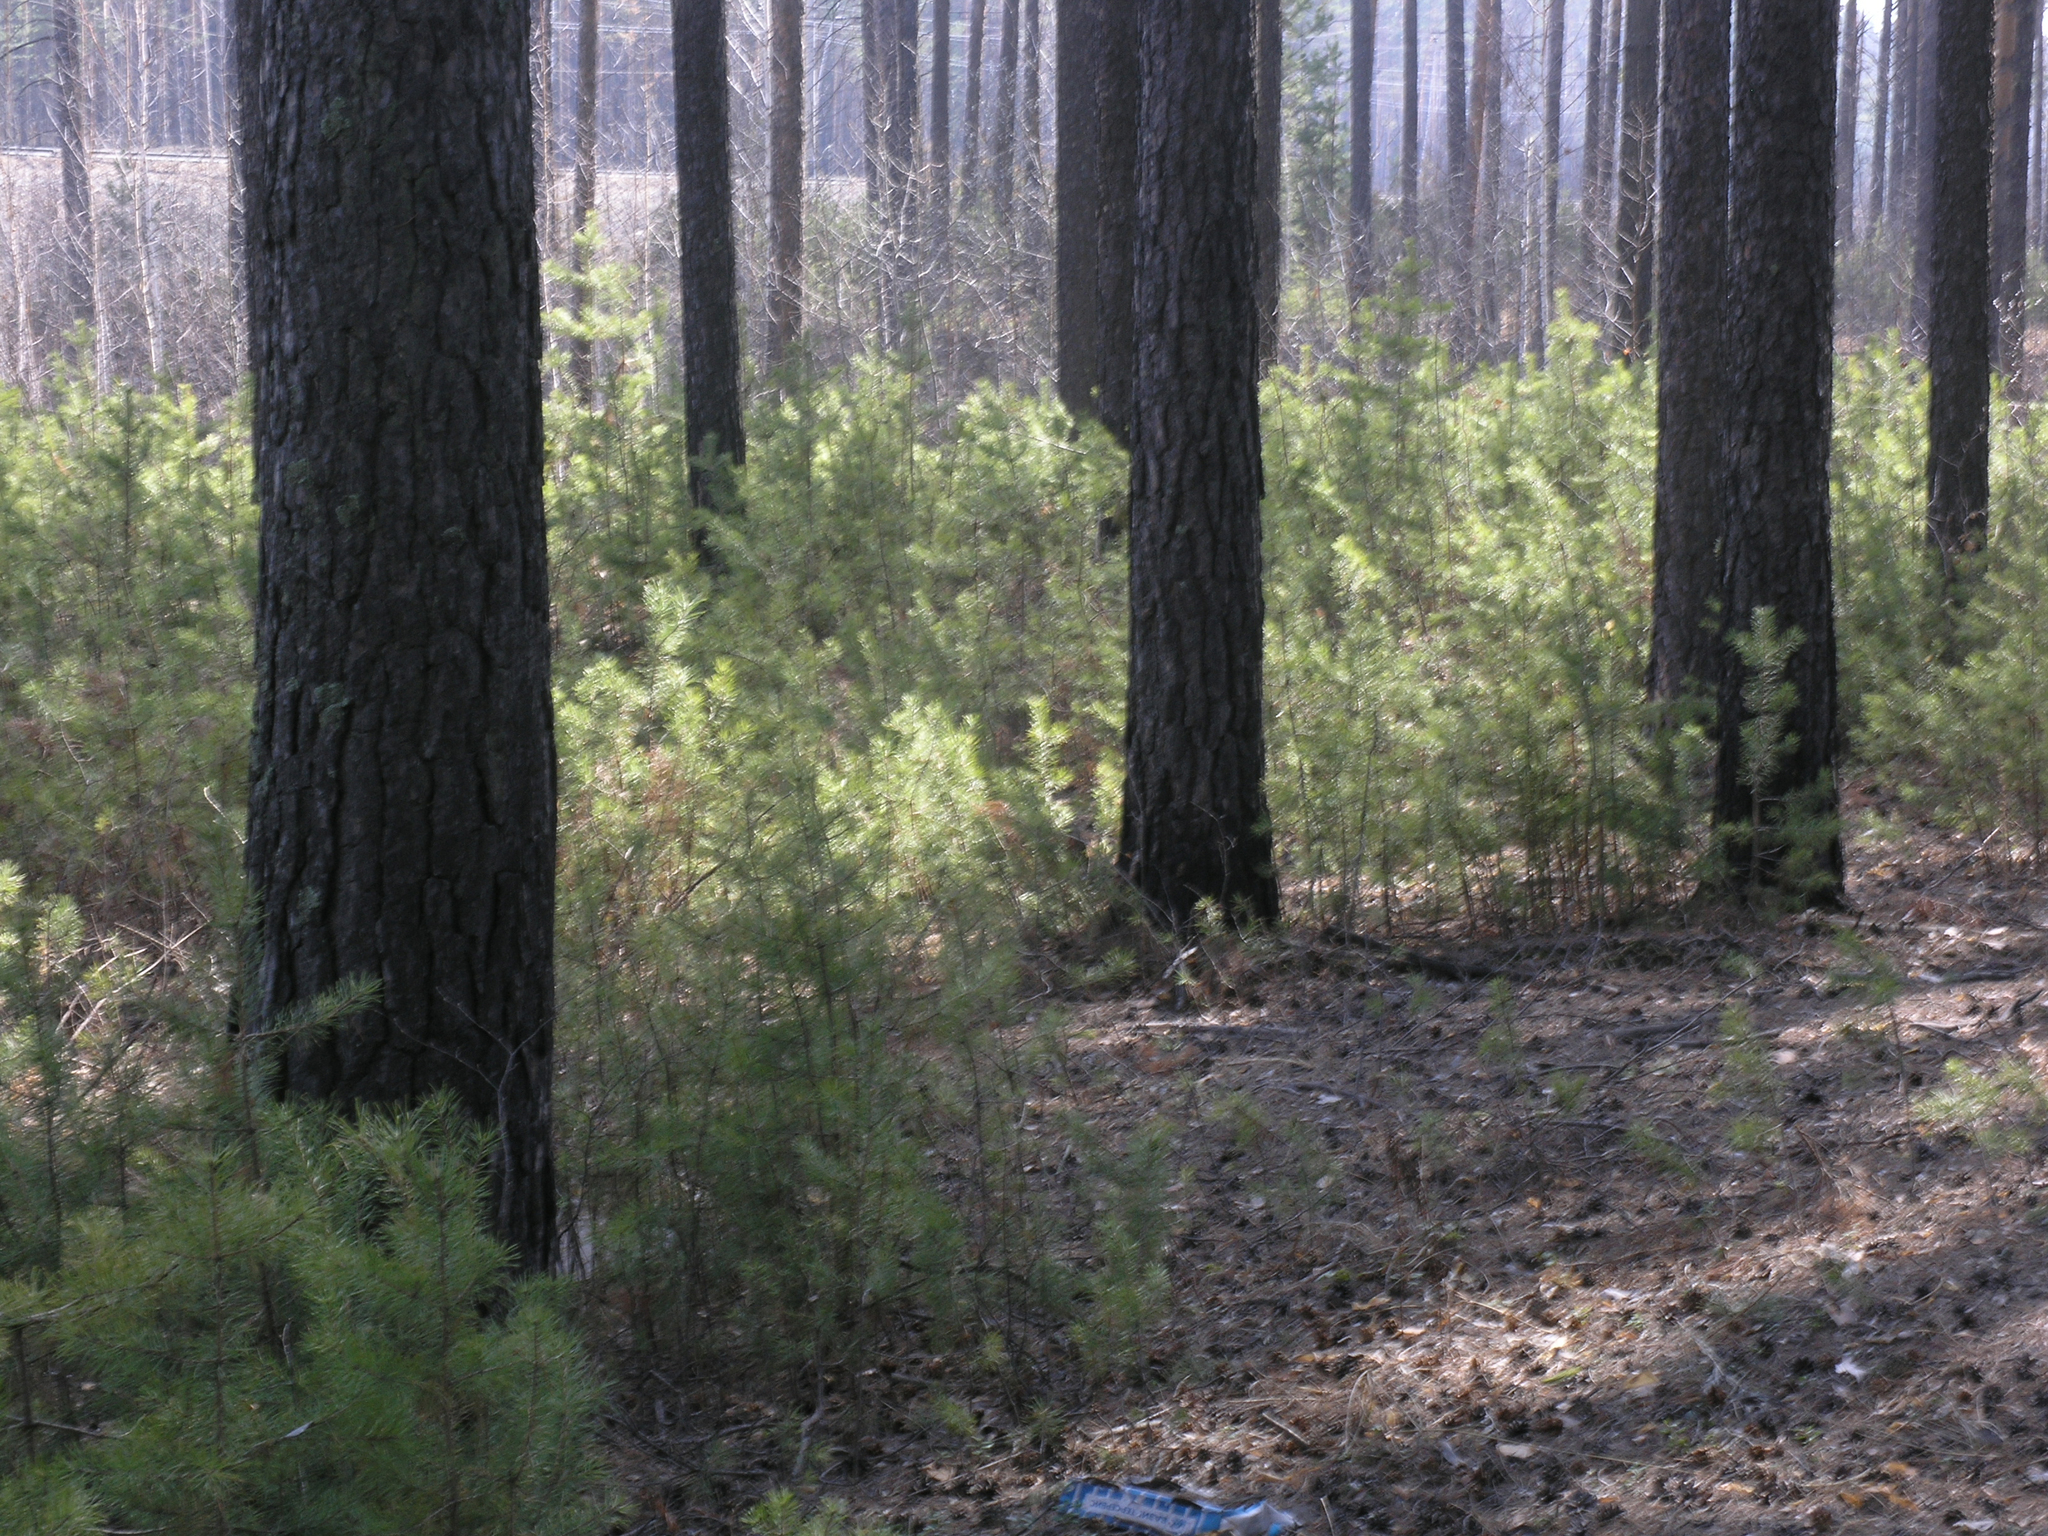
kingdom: Plantae
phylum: Tracheophyta
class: Pinopsida
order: Pinales
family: Pinaceae
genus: Pinus
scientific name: Pinus sylvestris
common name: Scots pine
